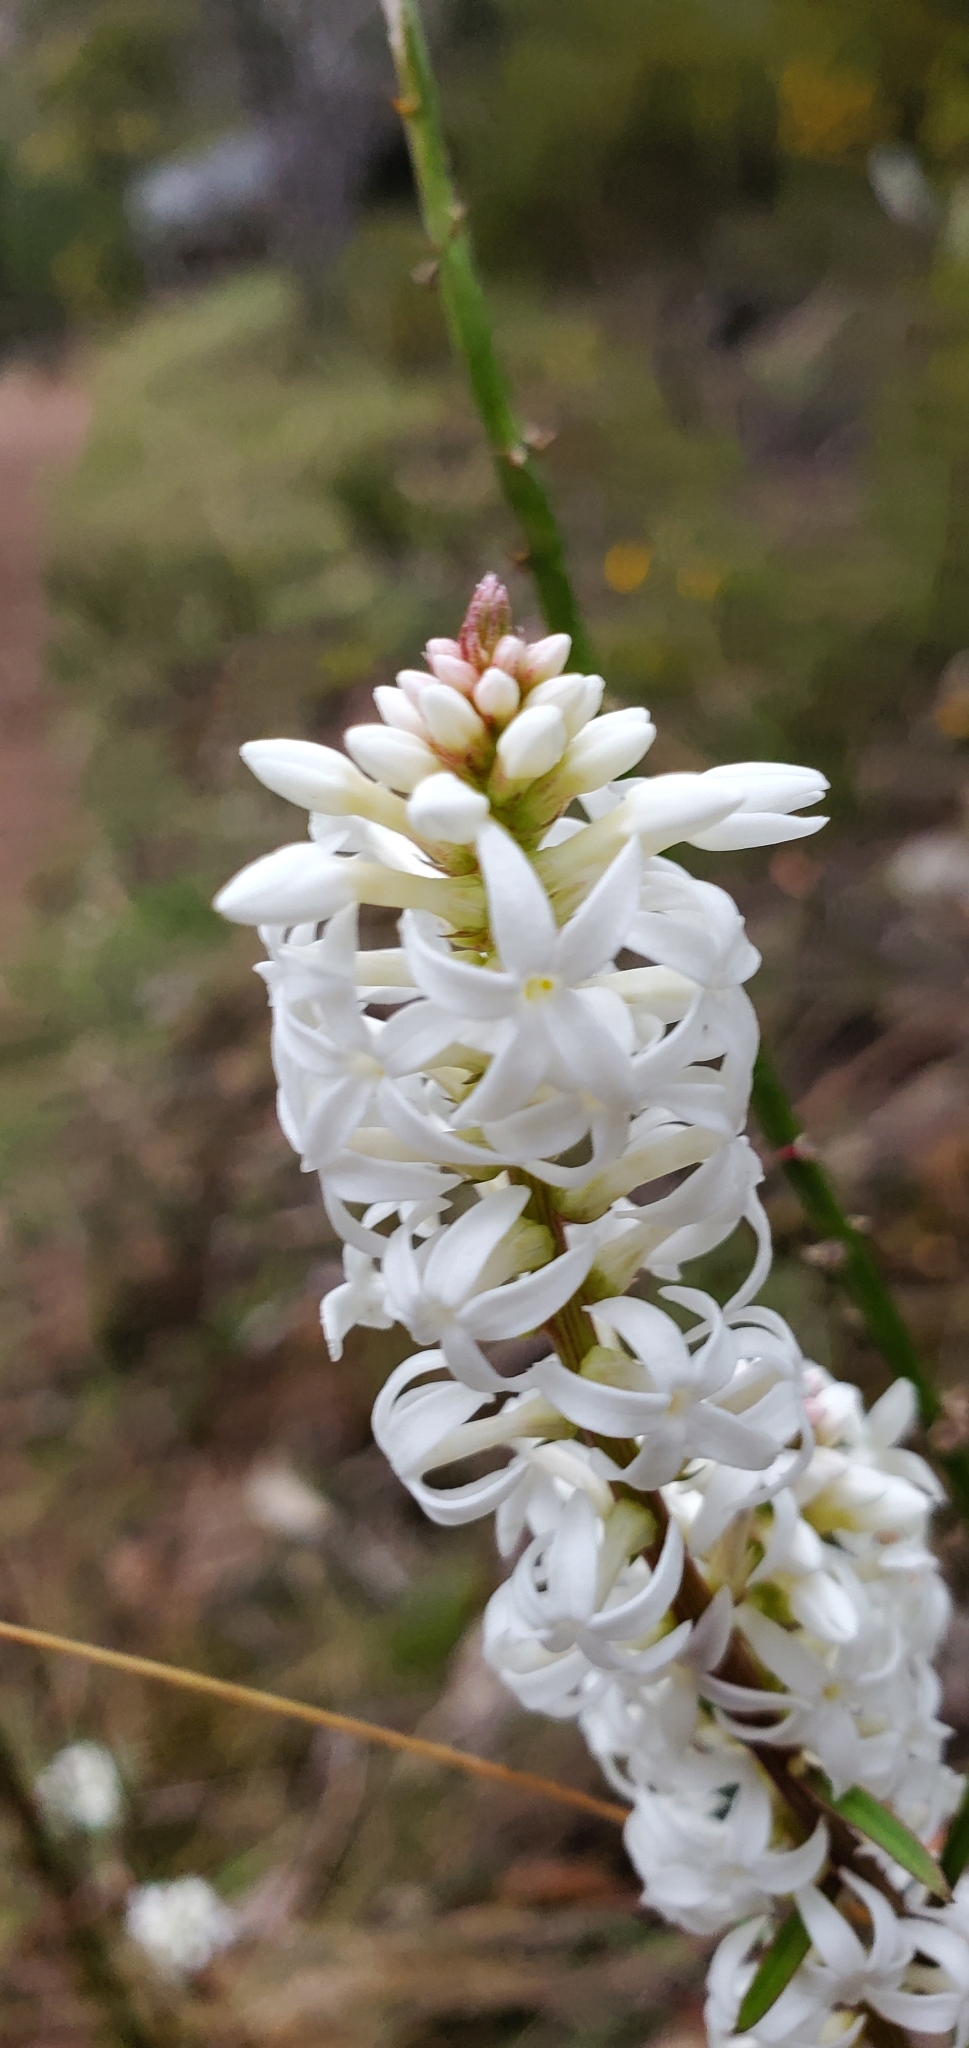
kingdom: Plantae
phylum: Tracheophyta
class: Magnoliopsida
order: Celastrales
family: Celastraceae
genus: Stackhousia
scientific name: Stackhousia monogyna
